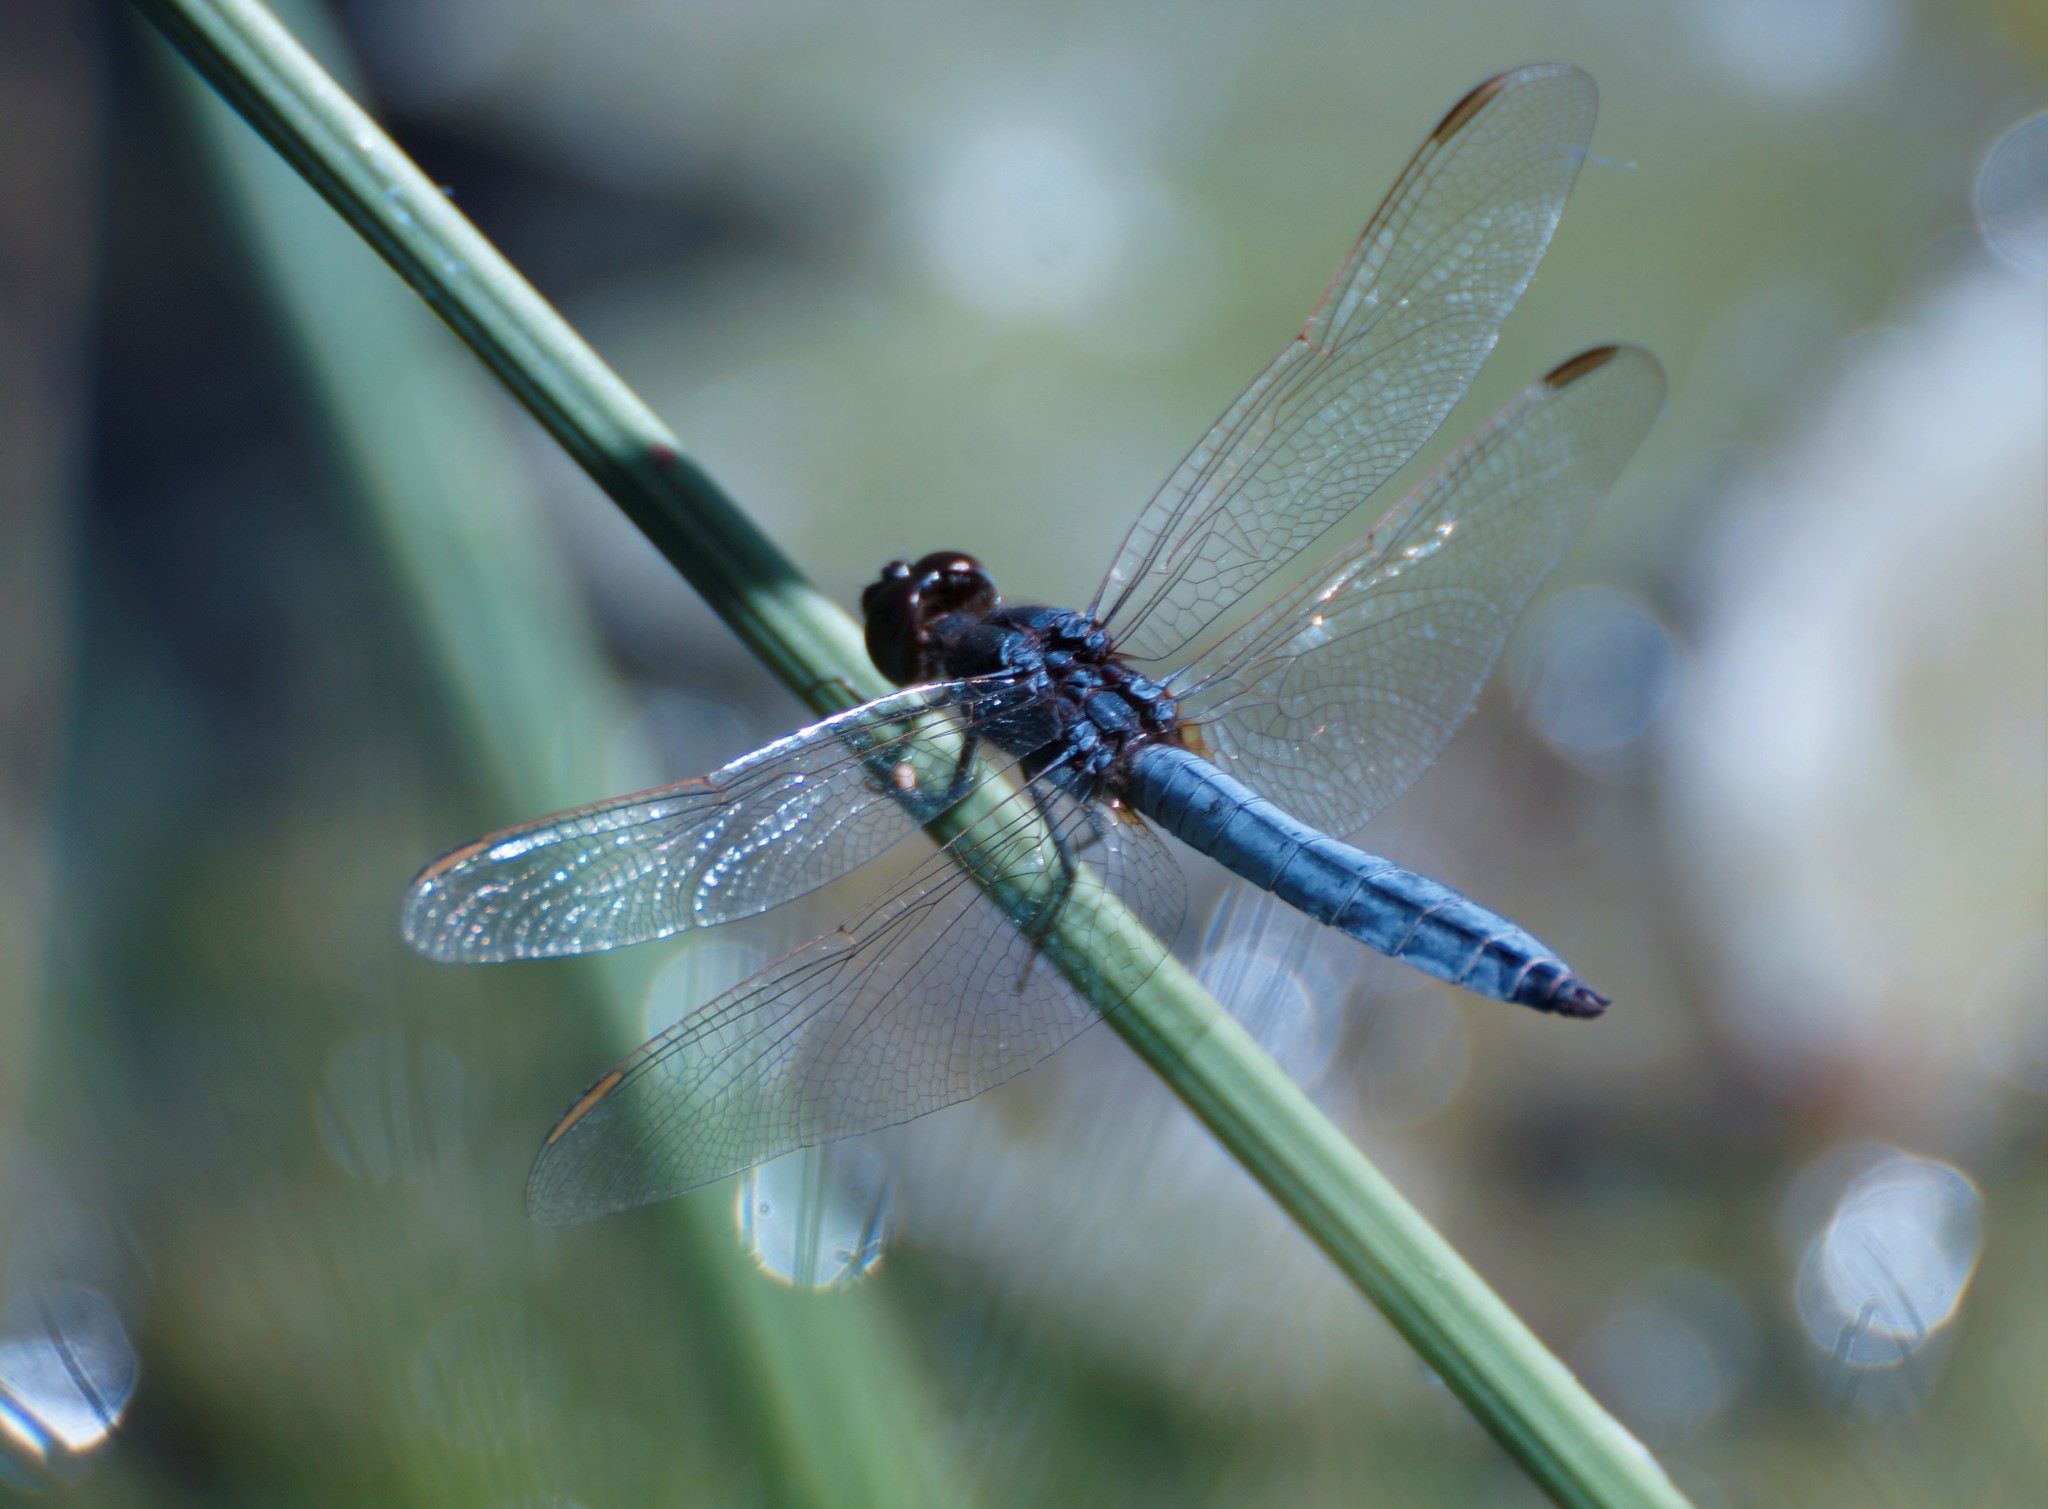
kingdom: Animalia
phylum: Arthropoda
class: Insecta
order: Odonata
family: Libellulidae
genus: Crocothemis
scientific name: Crocothemis nigrifrons
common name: Black-headed skimmer
